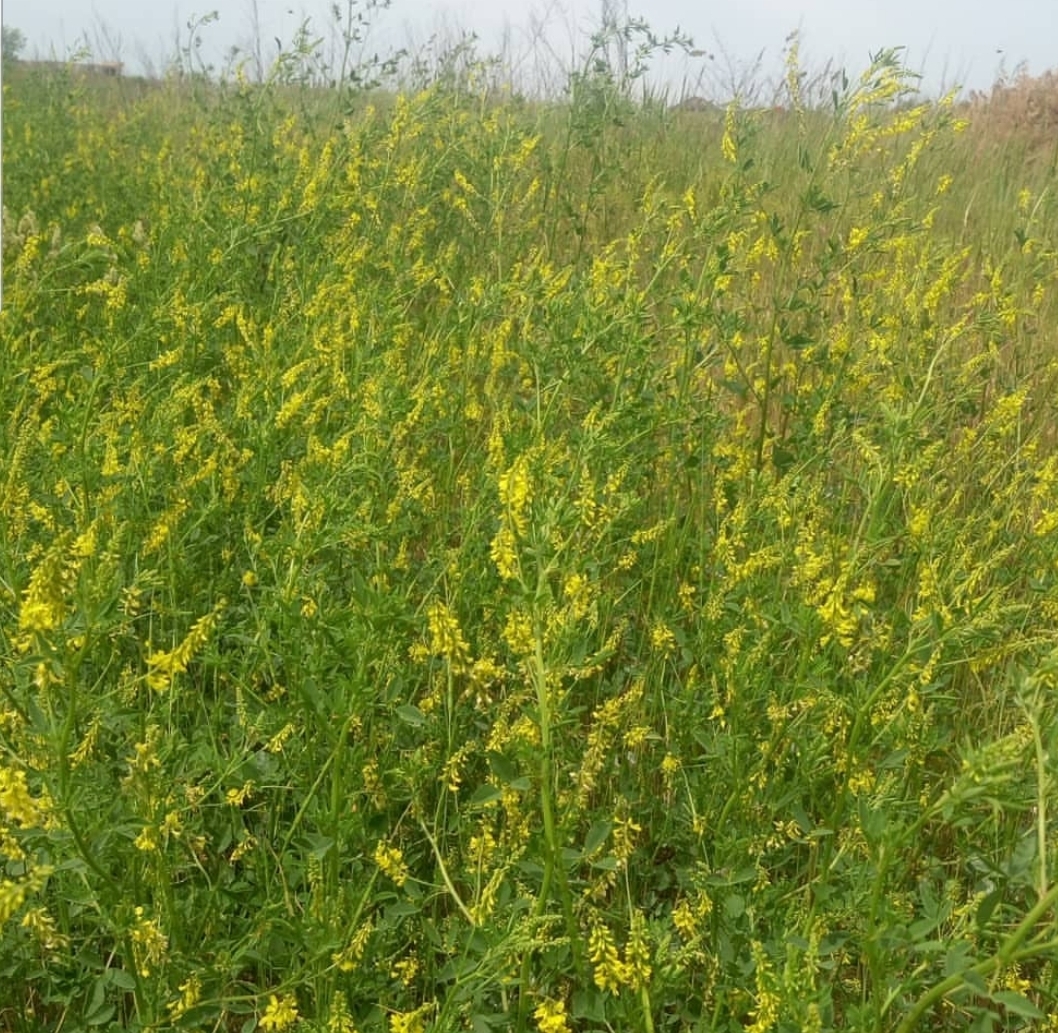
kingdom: Plantae
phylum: Tracheophyta
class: Magnoliopsida
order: Fabales
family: Fabaceae
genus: Melilotus
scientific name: Melilotus officinalis
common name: Sweetclover
